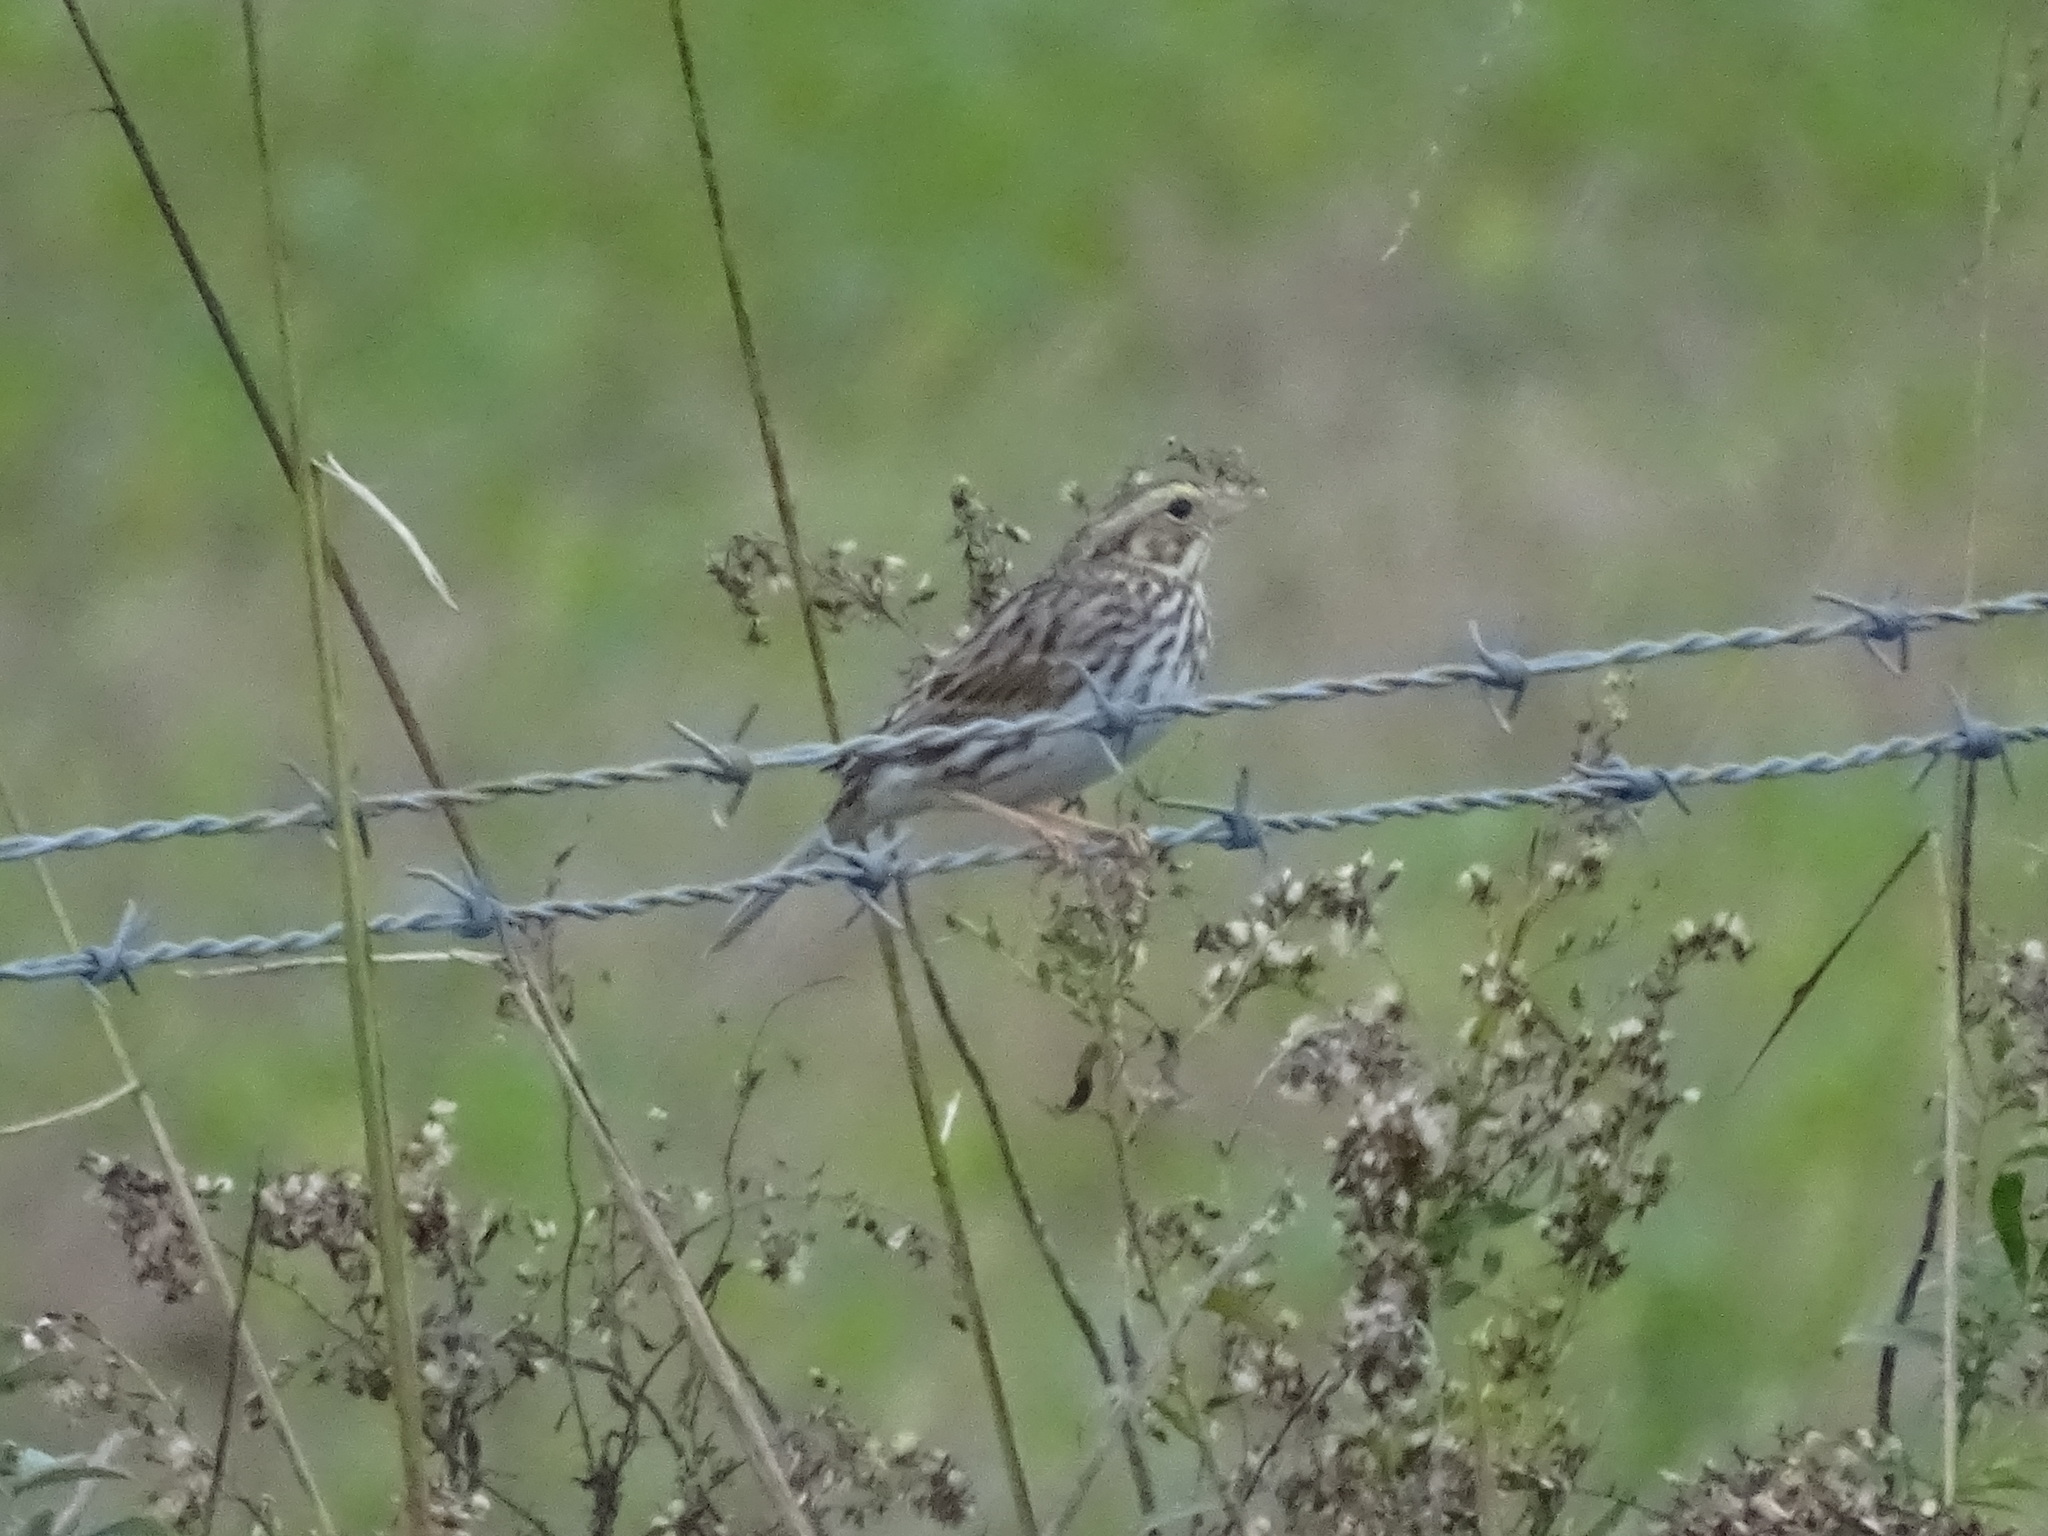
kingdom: Animalia
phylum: Chordata
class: Aves
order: Passeriformes
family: Passerellidae
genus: Passerculus
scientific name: Passerculus sandwichensis
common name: Savannah sparrow
